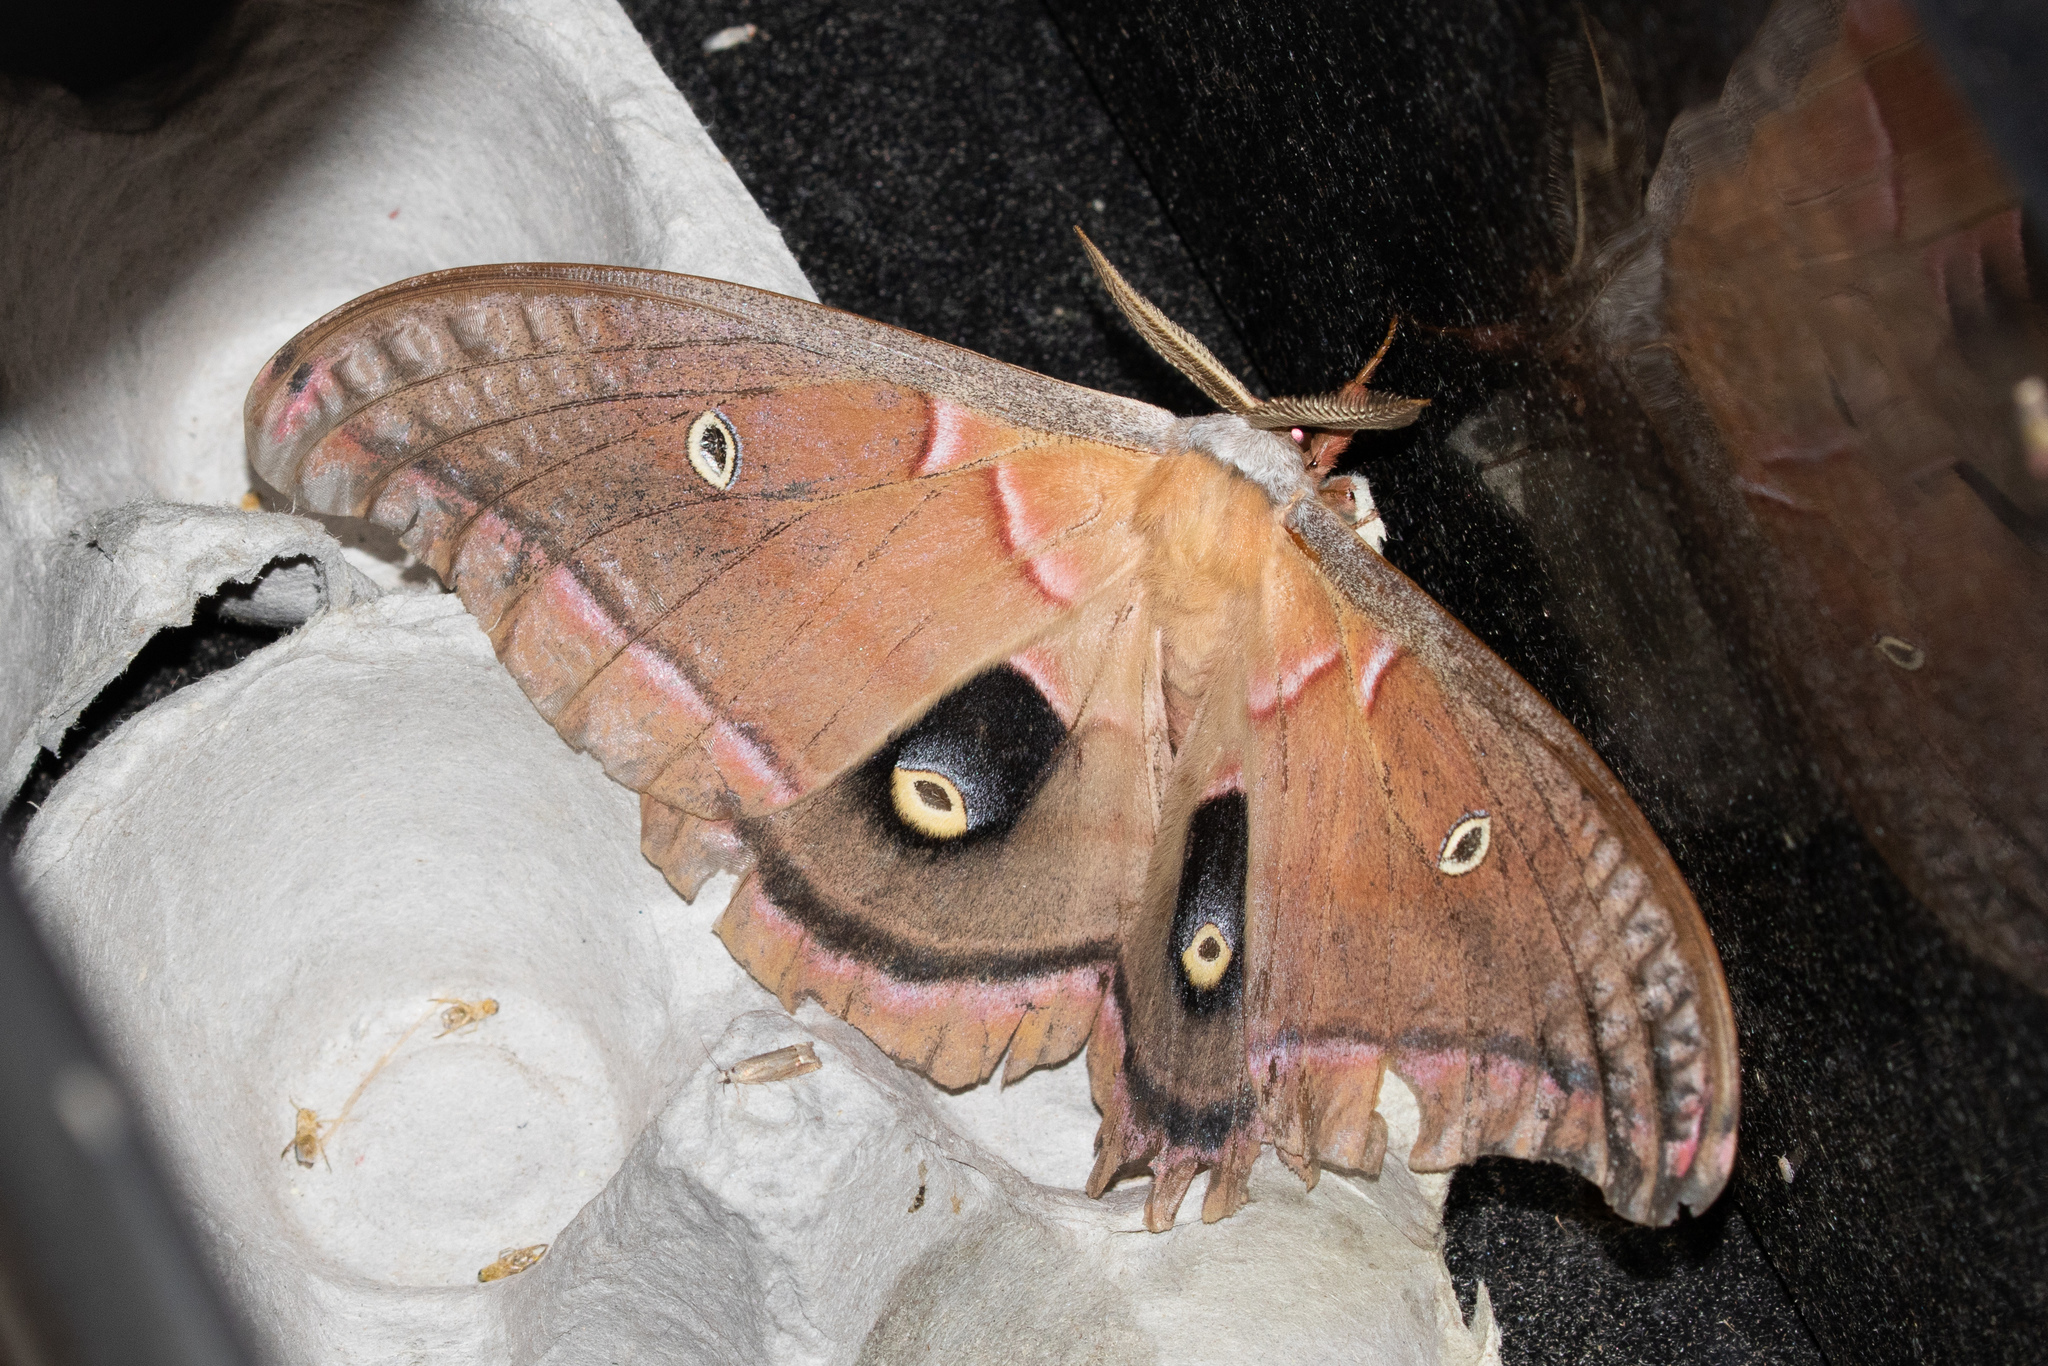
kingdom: Animalia
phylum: Arthropoda
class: Insecta
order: Lepidoptera
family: Saturniidae
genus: Antheraea
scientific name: Antheraea polyphemus
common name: Polyphemus moth
